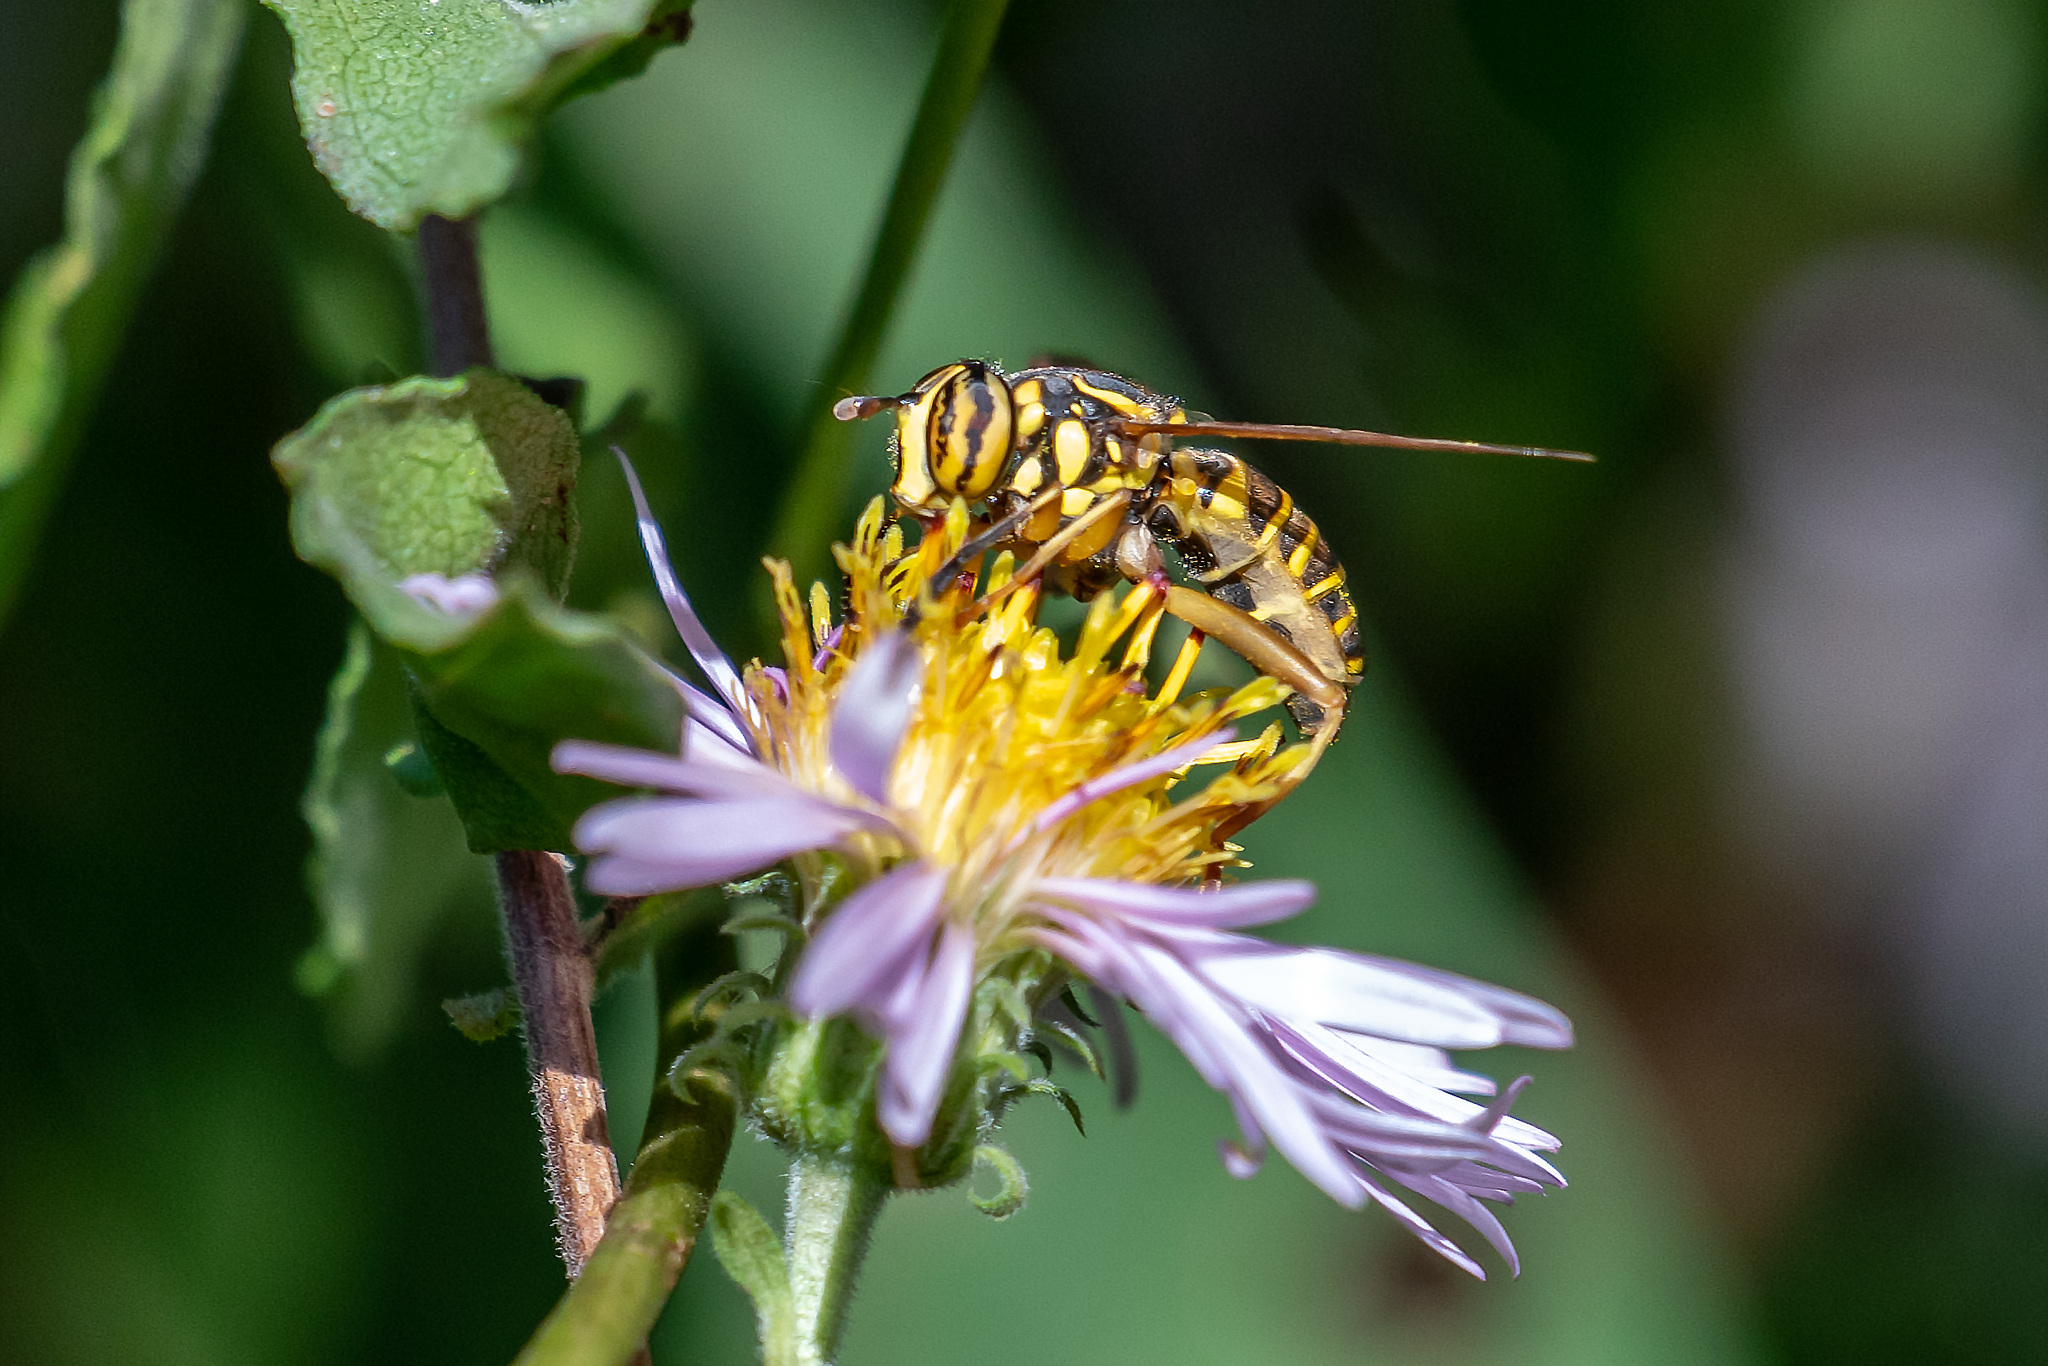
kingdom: Animalia
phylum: Arthropoda
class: Insecta
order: Diptera
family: Syrphidae
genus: Spilomyia
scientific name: Spilomyia longicornis
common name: Eastern hornet fly
